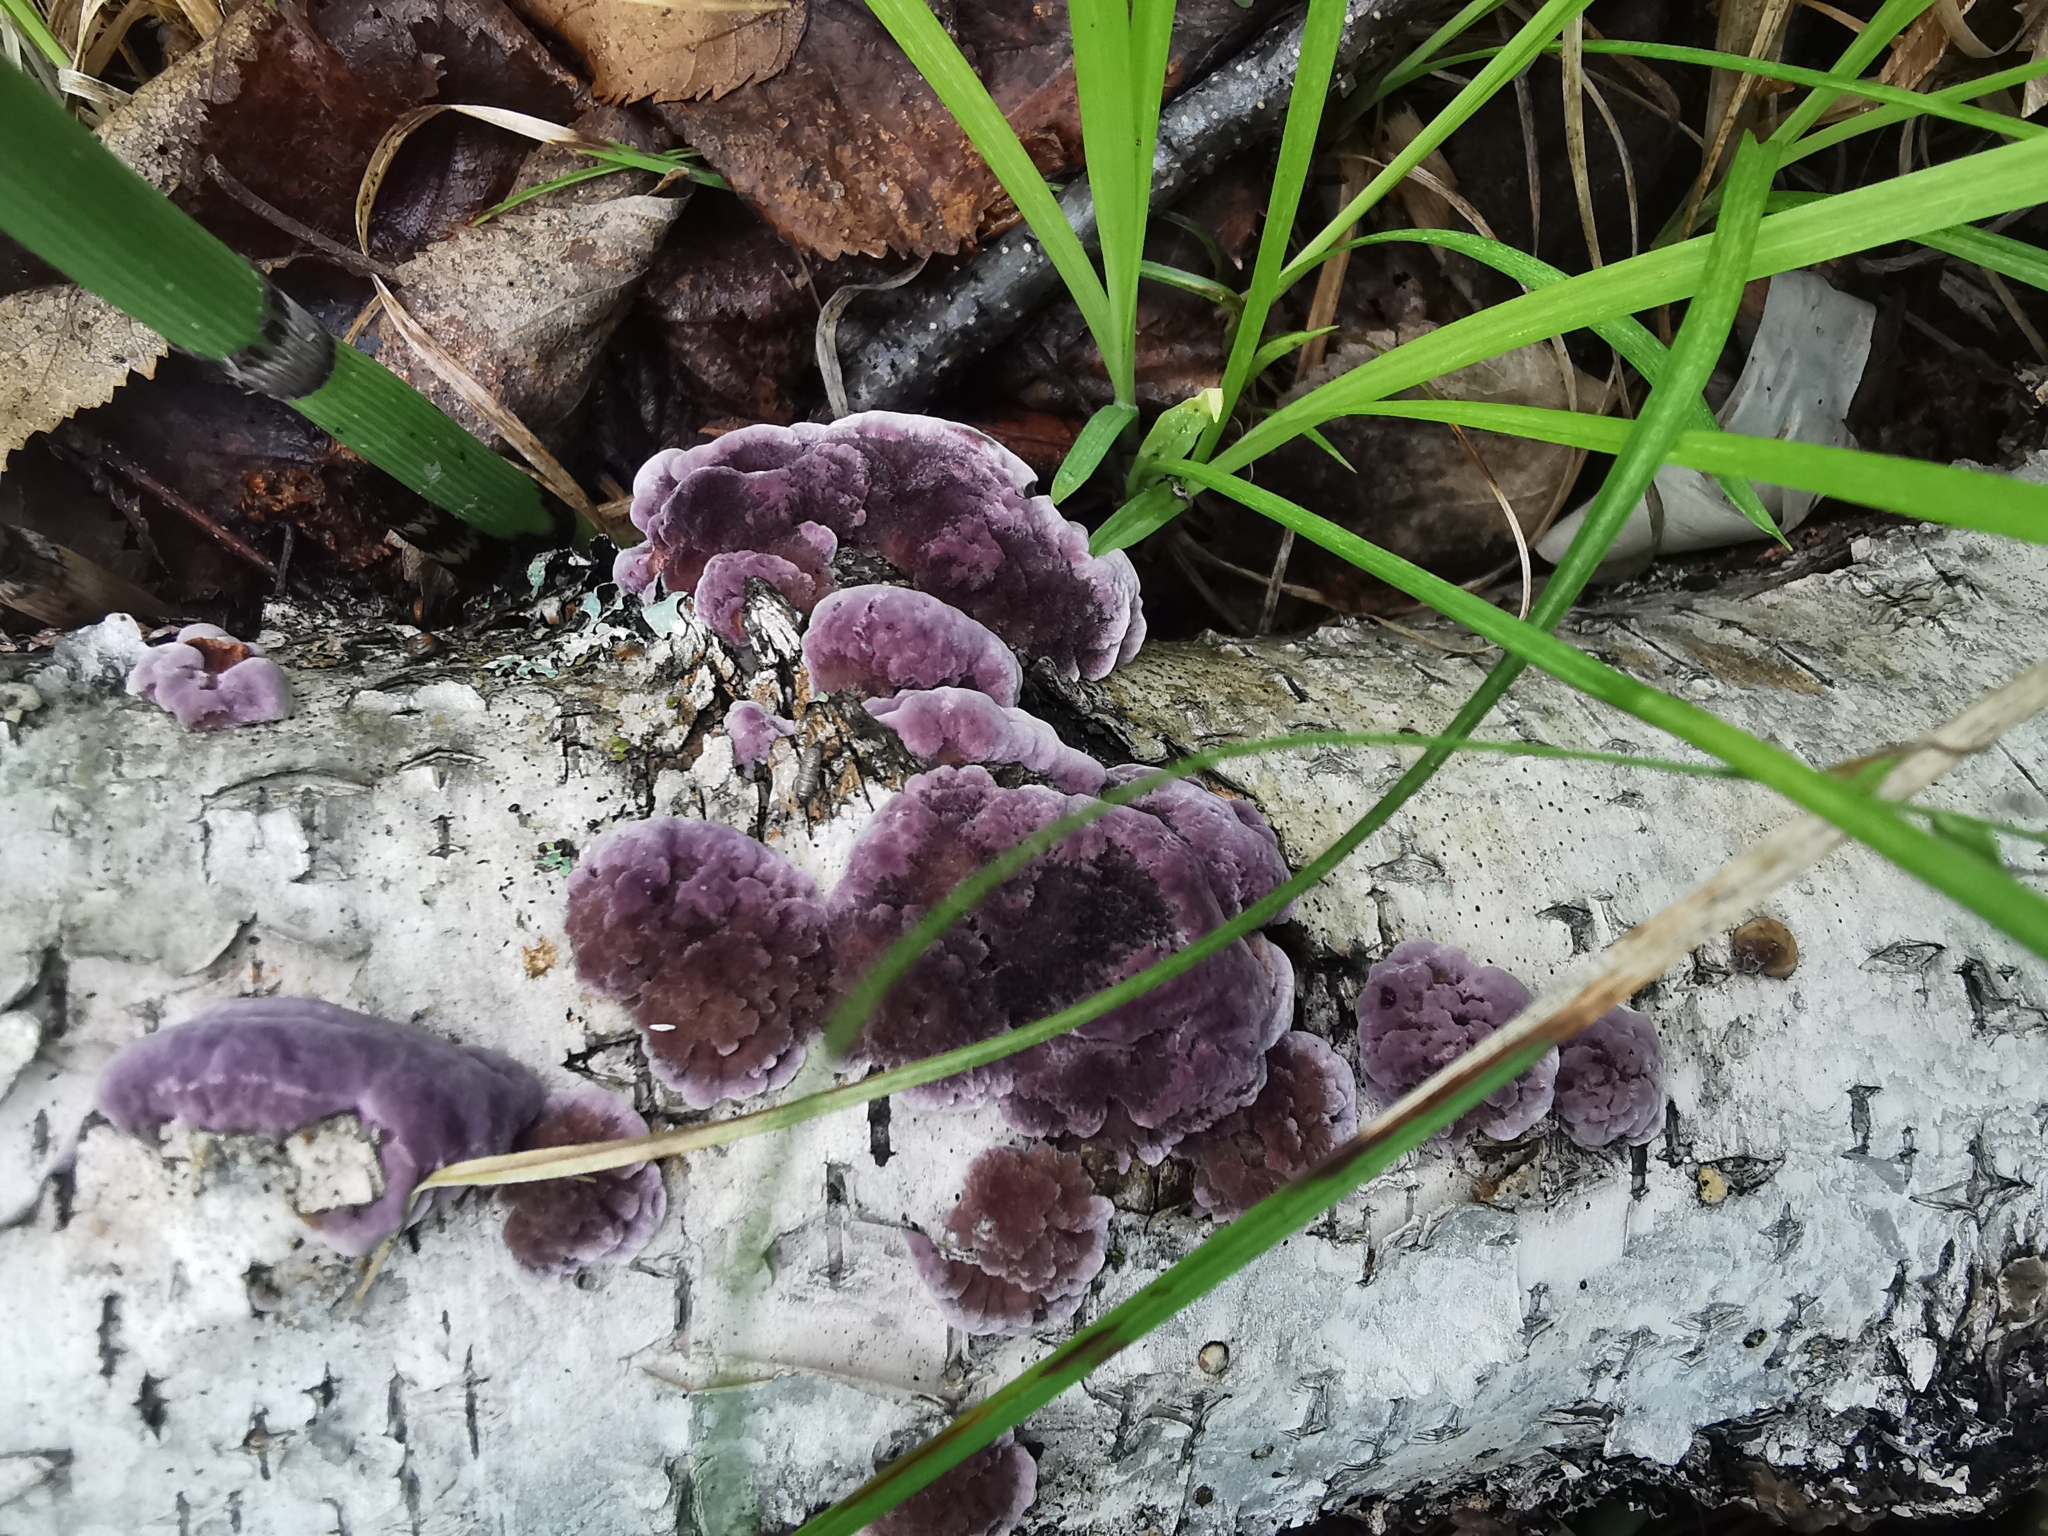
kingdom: Fungi
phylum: Basidiomycota
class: Agaricomycetes
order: Hymenochaetales
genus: Trichaptum
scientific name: Trichaptum biforme
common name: Violet-toothed polypore
